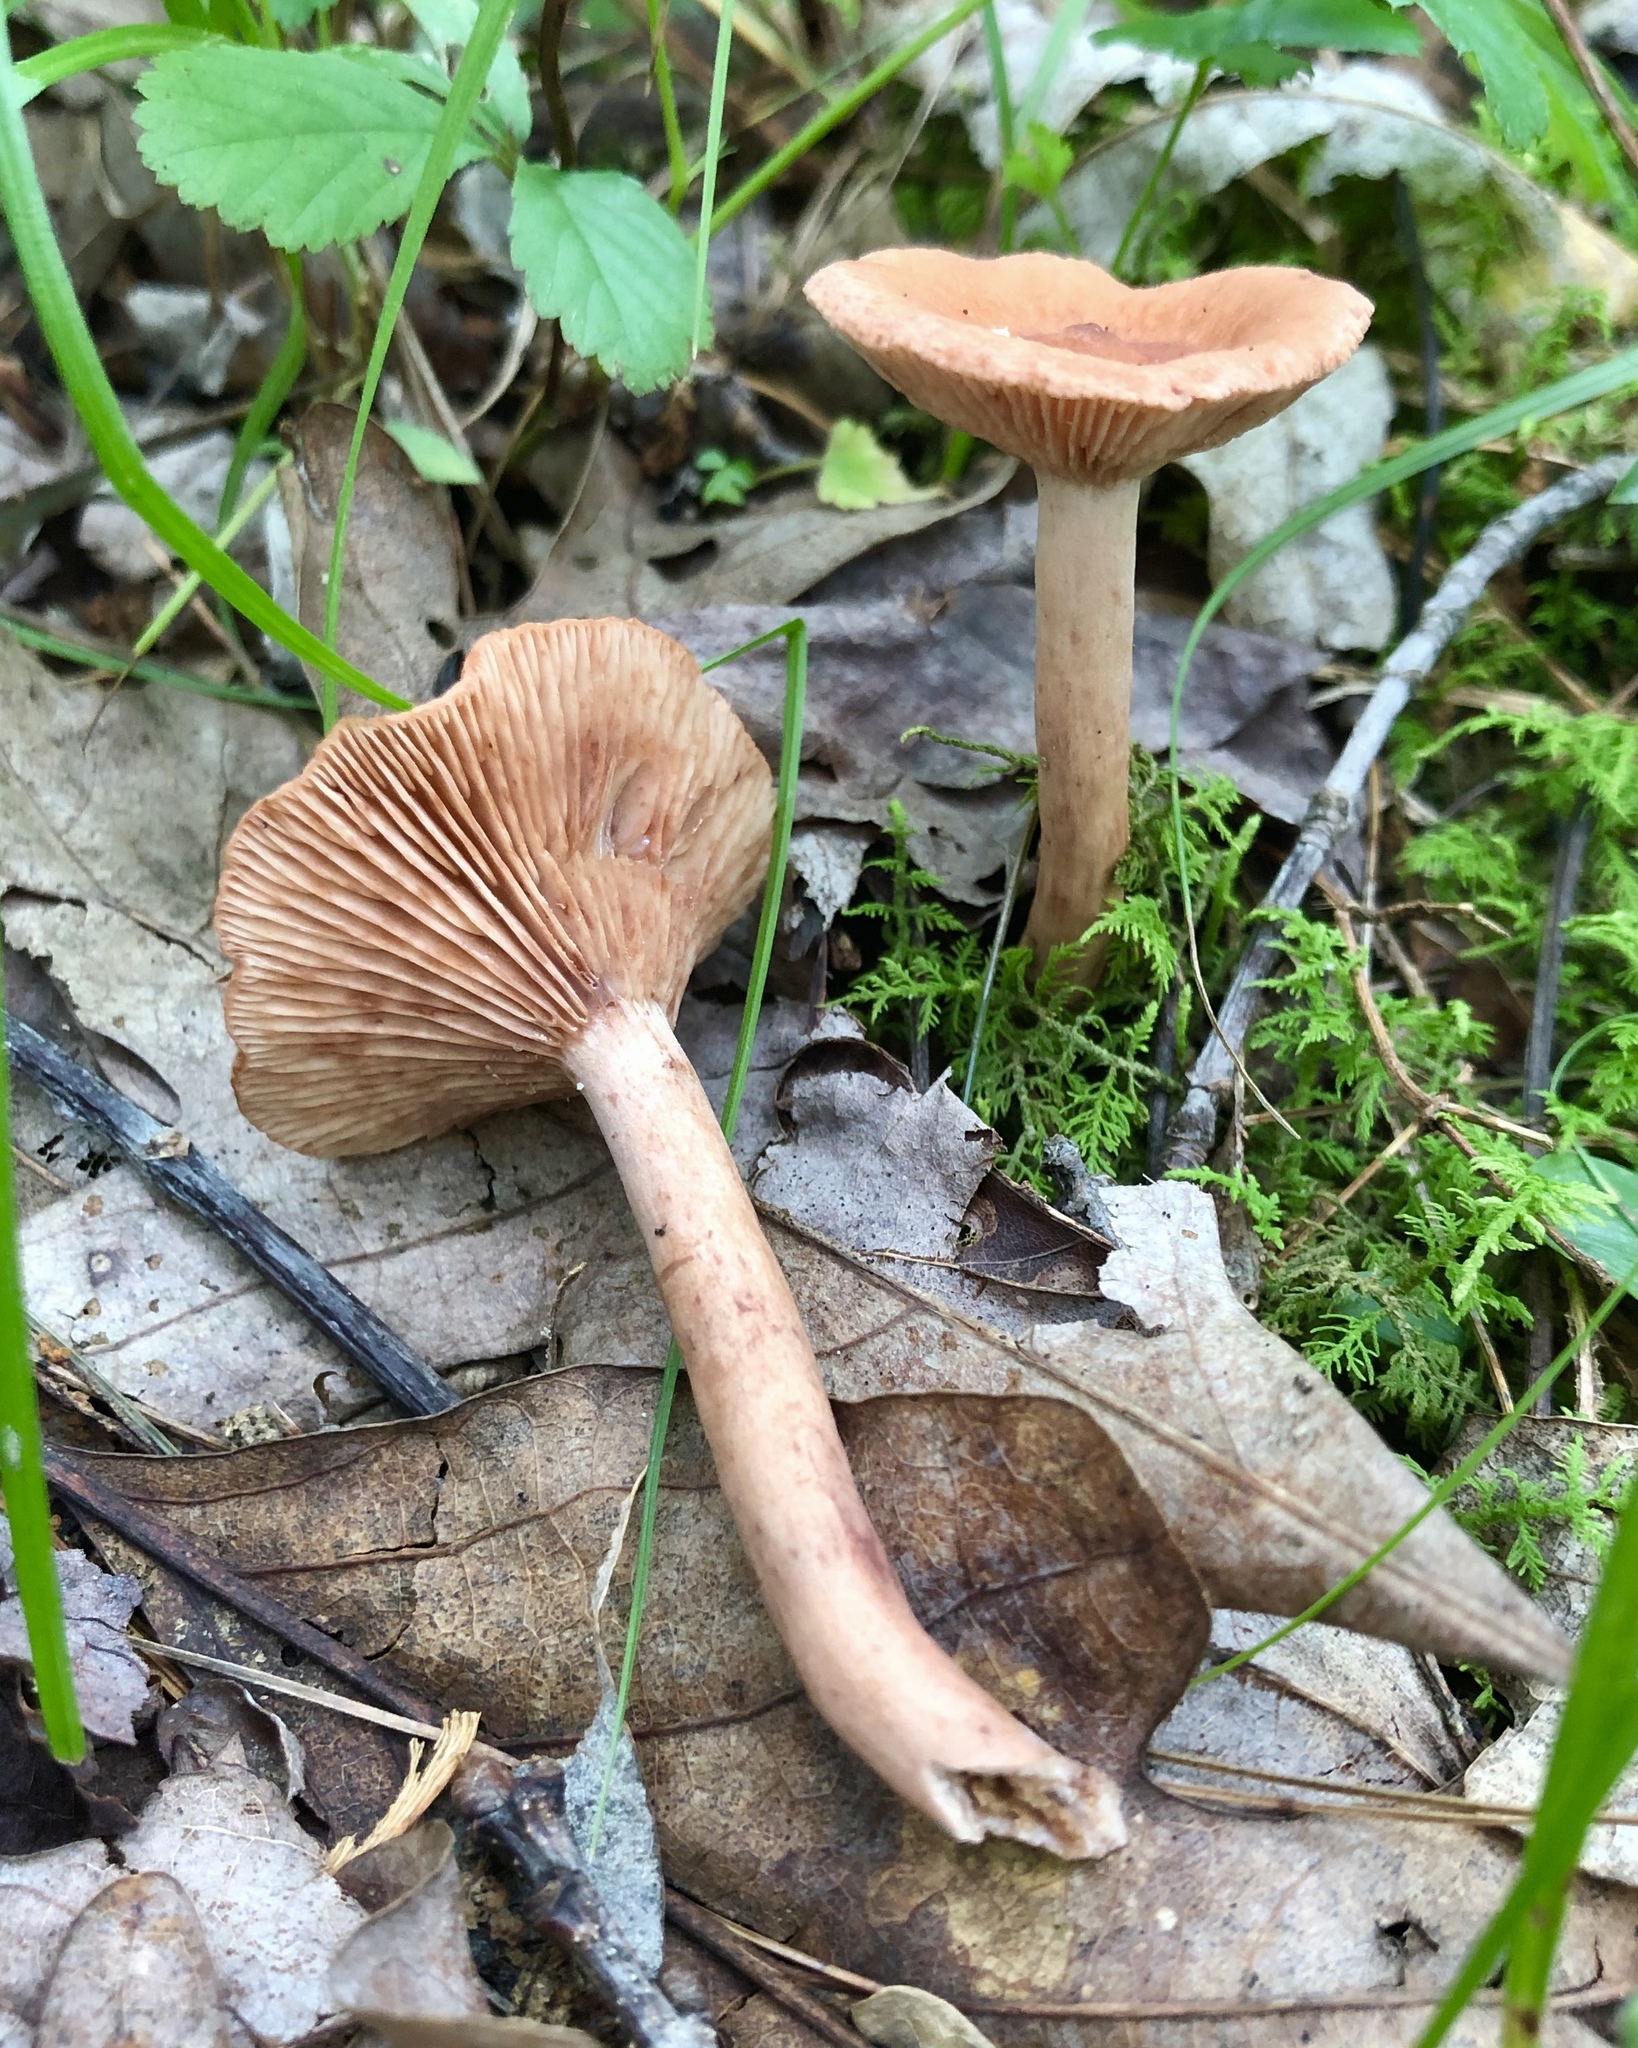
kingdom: Fungi
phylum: Basidiomycota
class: Agaricomycetes
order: Russulales
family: Russulaceae
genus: Lactarius
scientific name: Lactarius quietus
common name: Oak milk-cap
